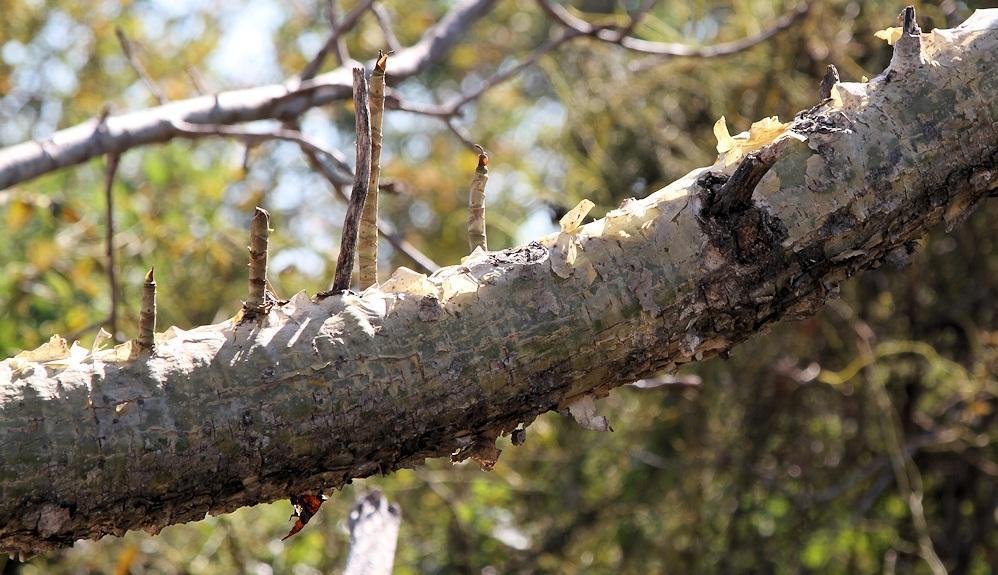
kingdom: Plantae
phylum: Tracheophyta
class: Magnoliopsida
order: Apiales
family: Apiaceae
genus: Steganotaenia
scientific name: Steganotaenia araliacea
